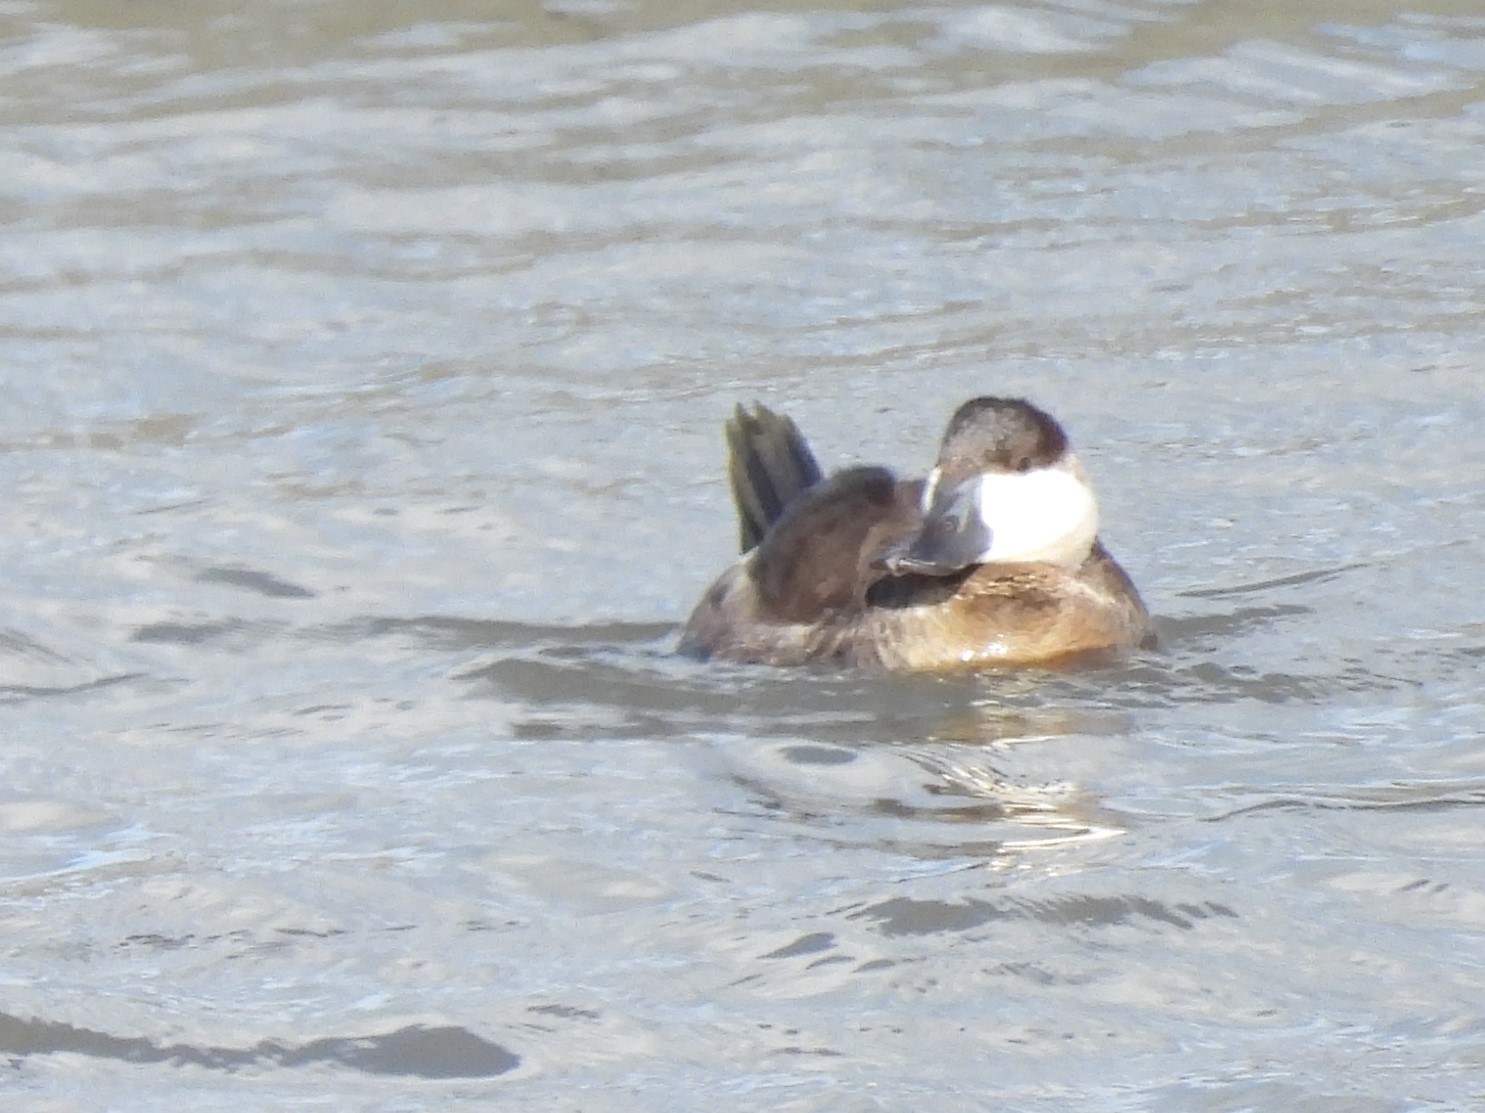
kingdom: Animalia
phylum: Chordata
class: Aves
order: Anseriformes
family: Anatidae
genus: Oxyura
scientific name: Oxyura jamaicensis
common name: Ruddy duck
